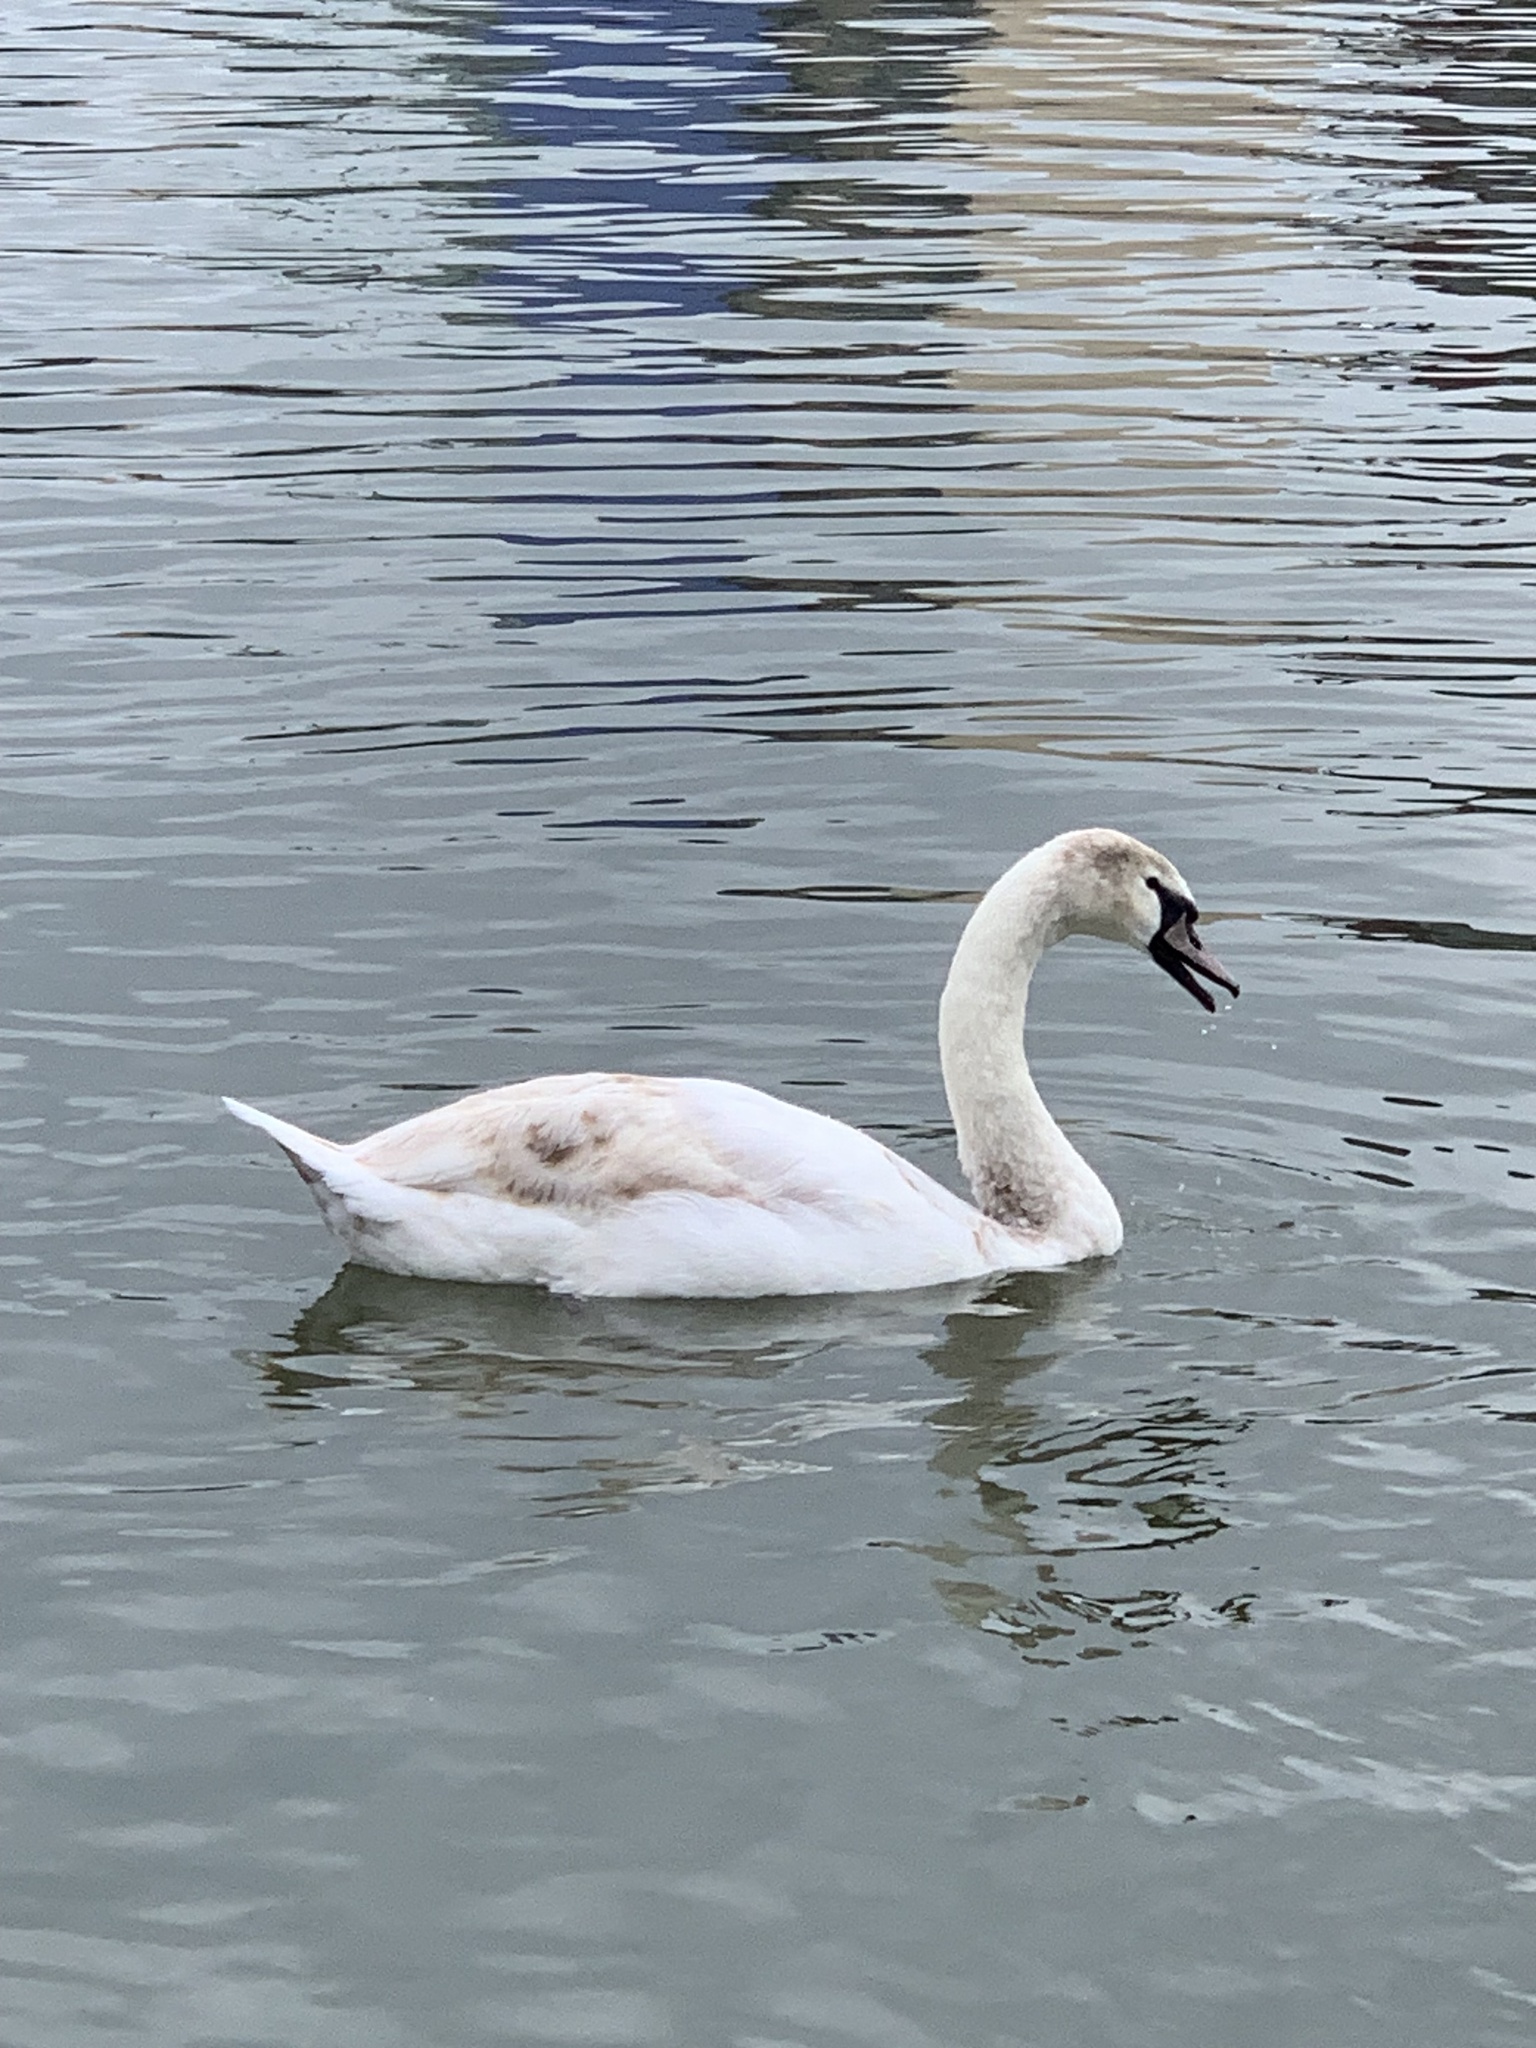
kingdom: Animalia
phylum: Chordata
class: Aves
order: Anseriformes
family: Anatidae
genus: Cygnus
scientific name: Cygnus olor
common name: Mute swan
